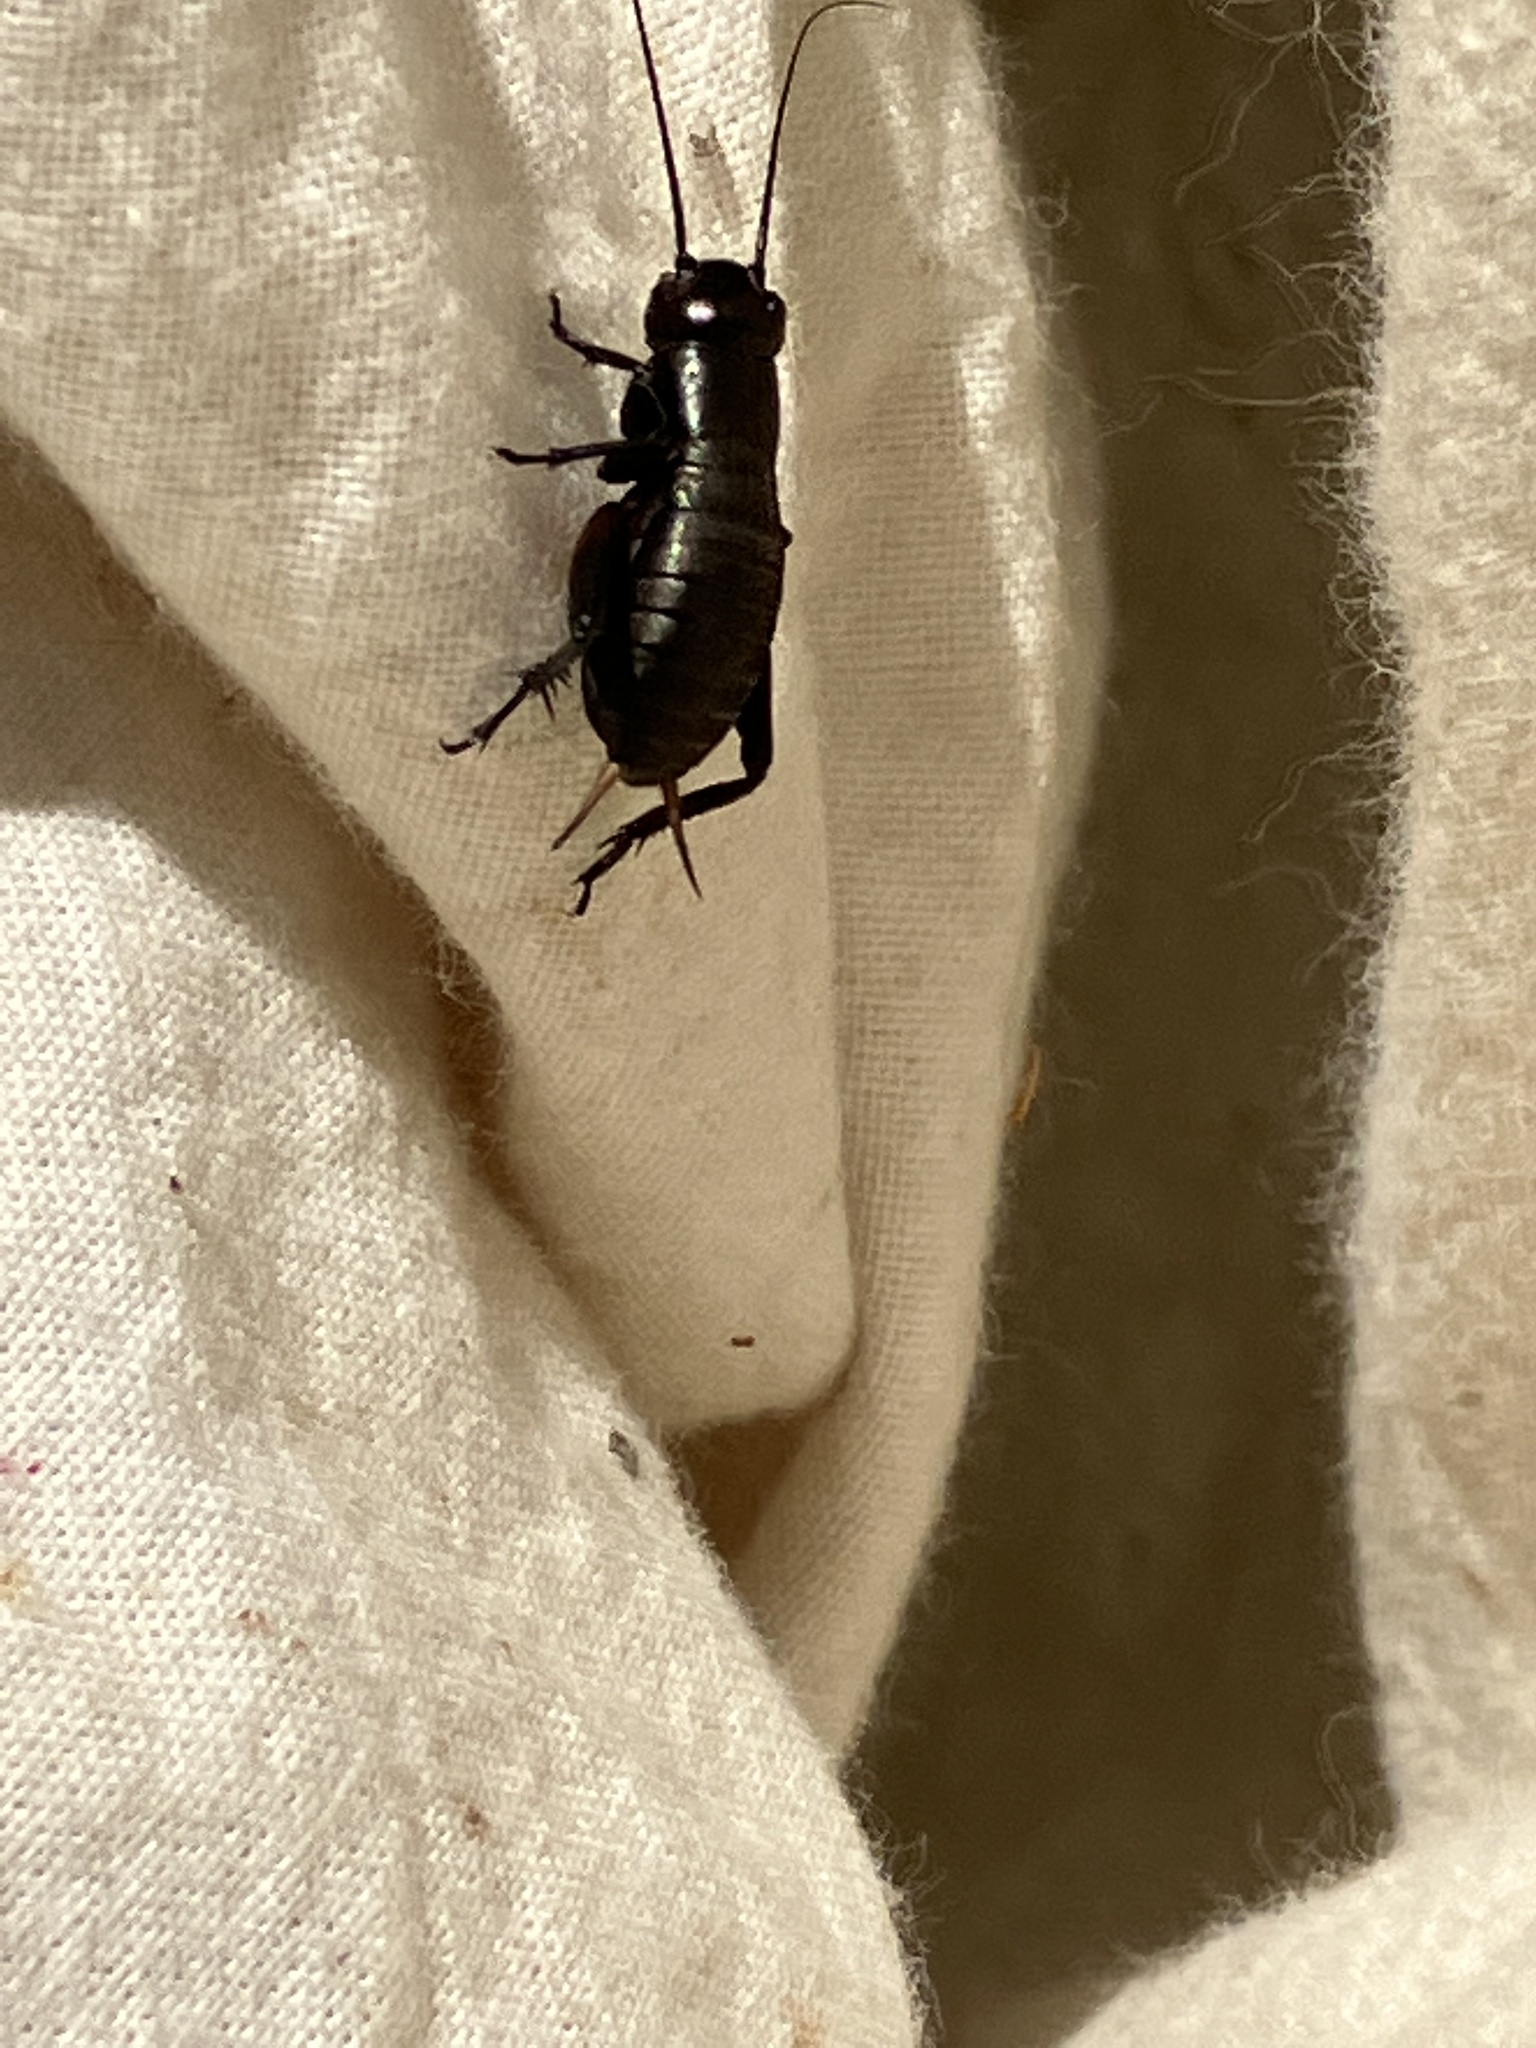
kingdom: Animalia
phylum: Arthropoda
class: Insecta
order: Orthoptera
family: Gryllidae
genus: Gryllus
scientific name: Gryllus campestris
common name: Field cricket
